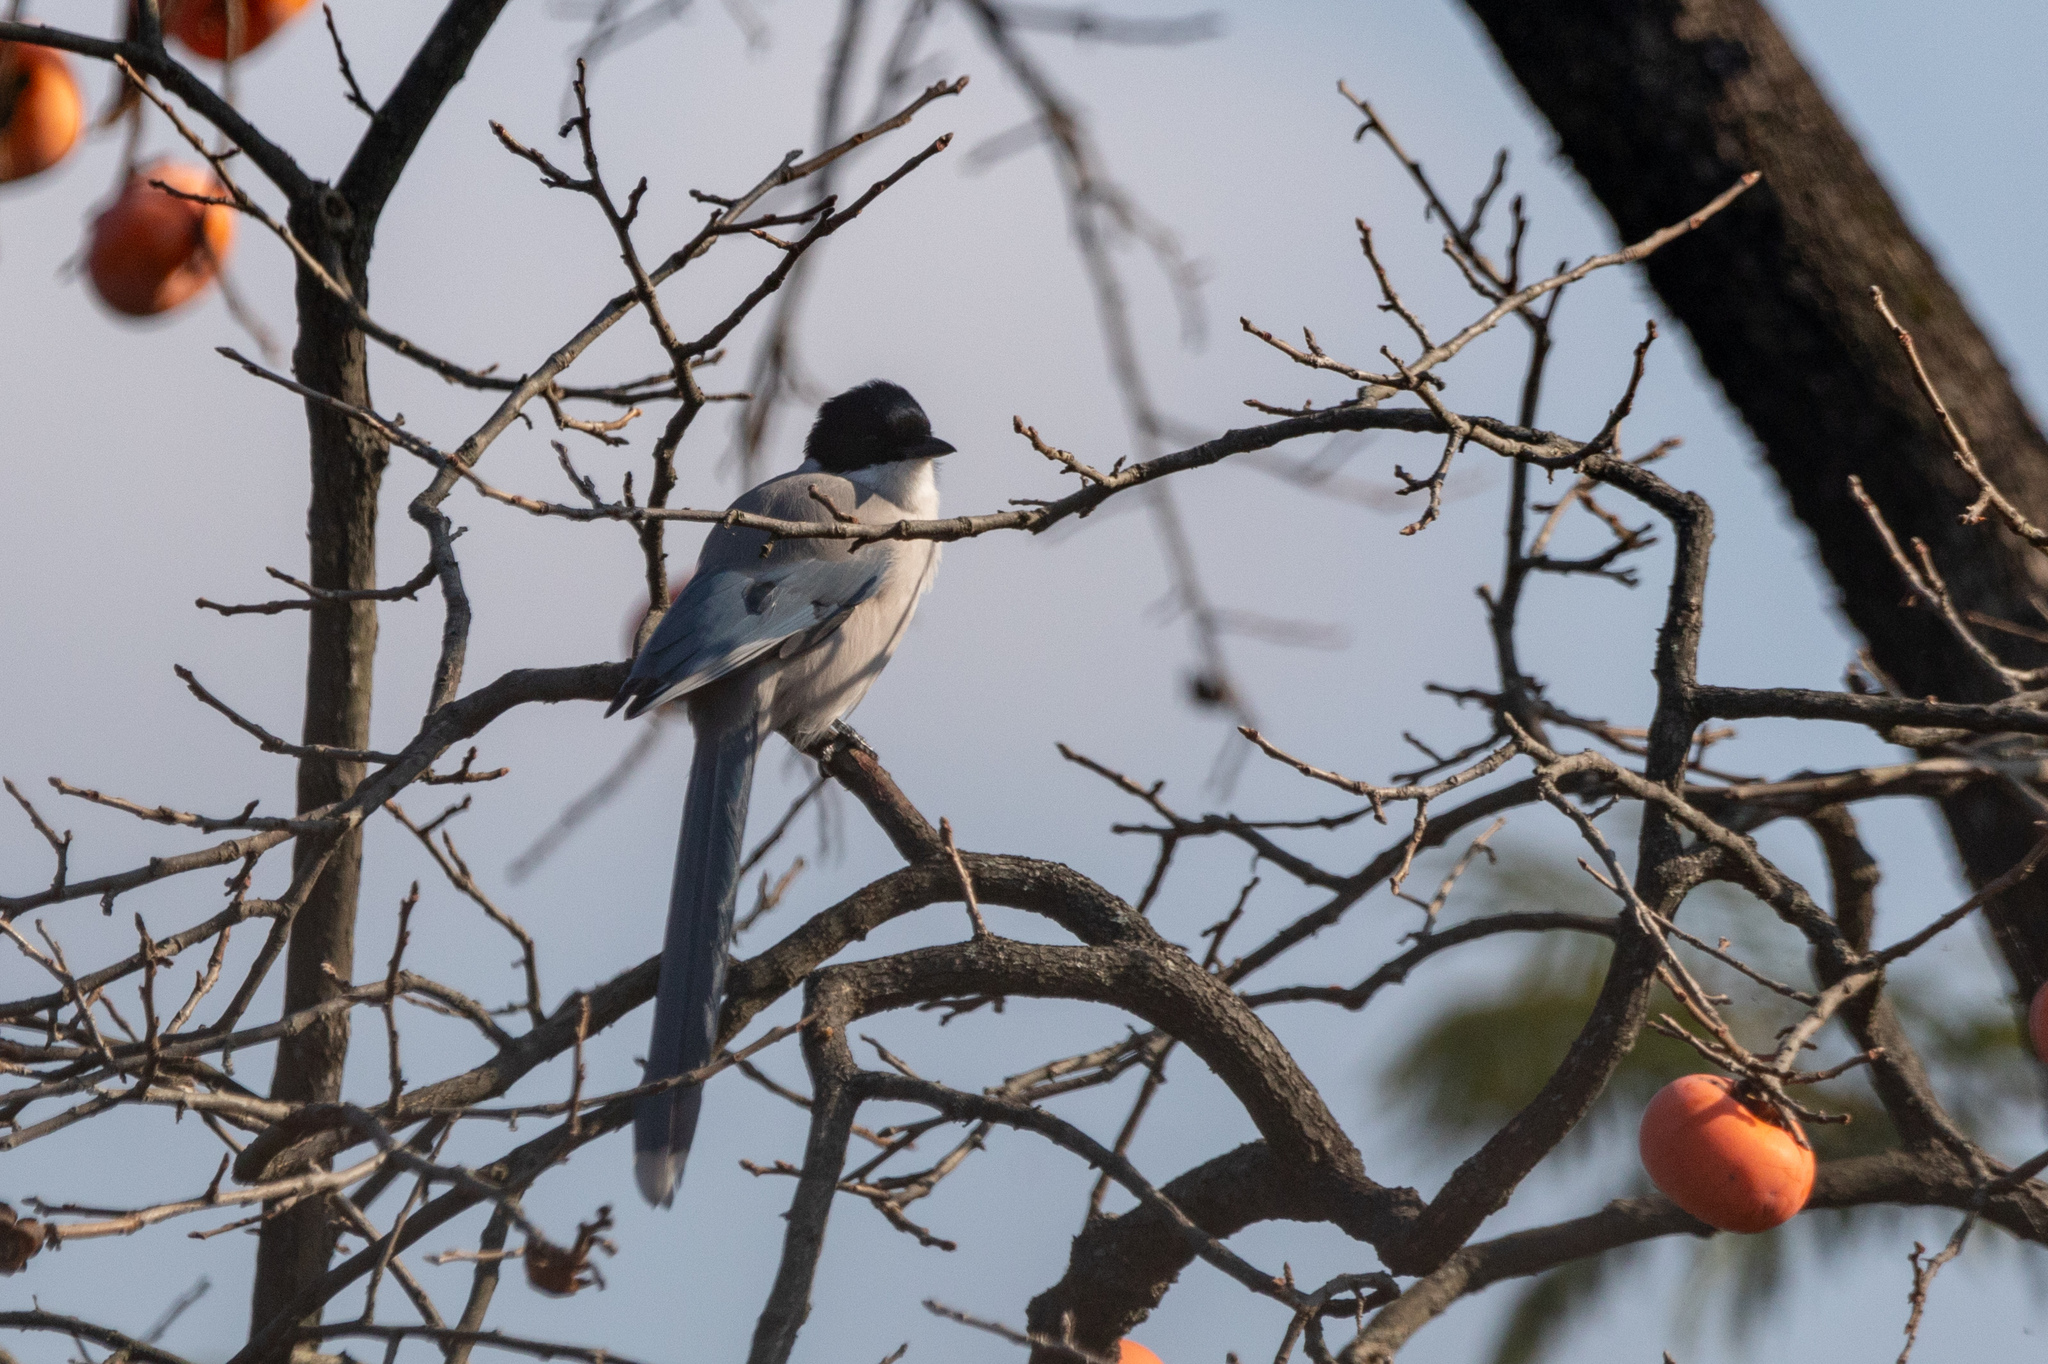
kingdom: Animalia
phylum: Chordata
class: Aves
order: Passeriformes
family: Corvidae
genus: Cyanopica
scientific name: Cyanopica cyanus
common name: Azure-winged magpie
